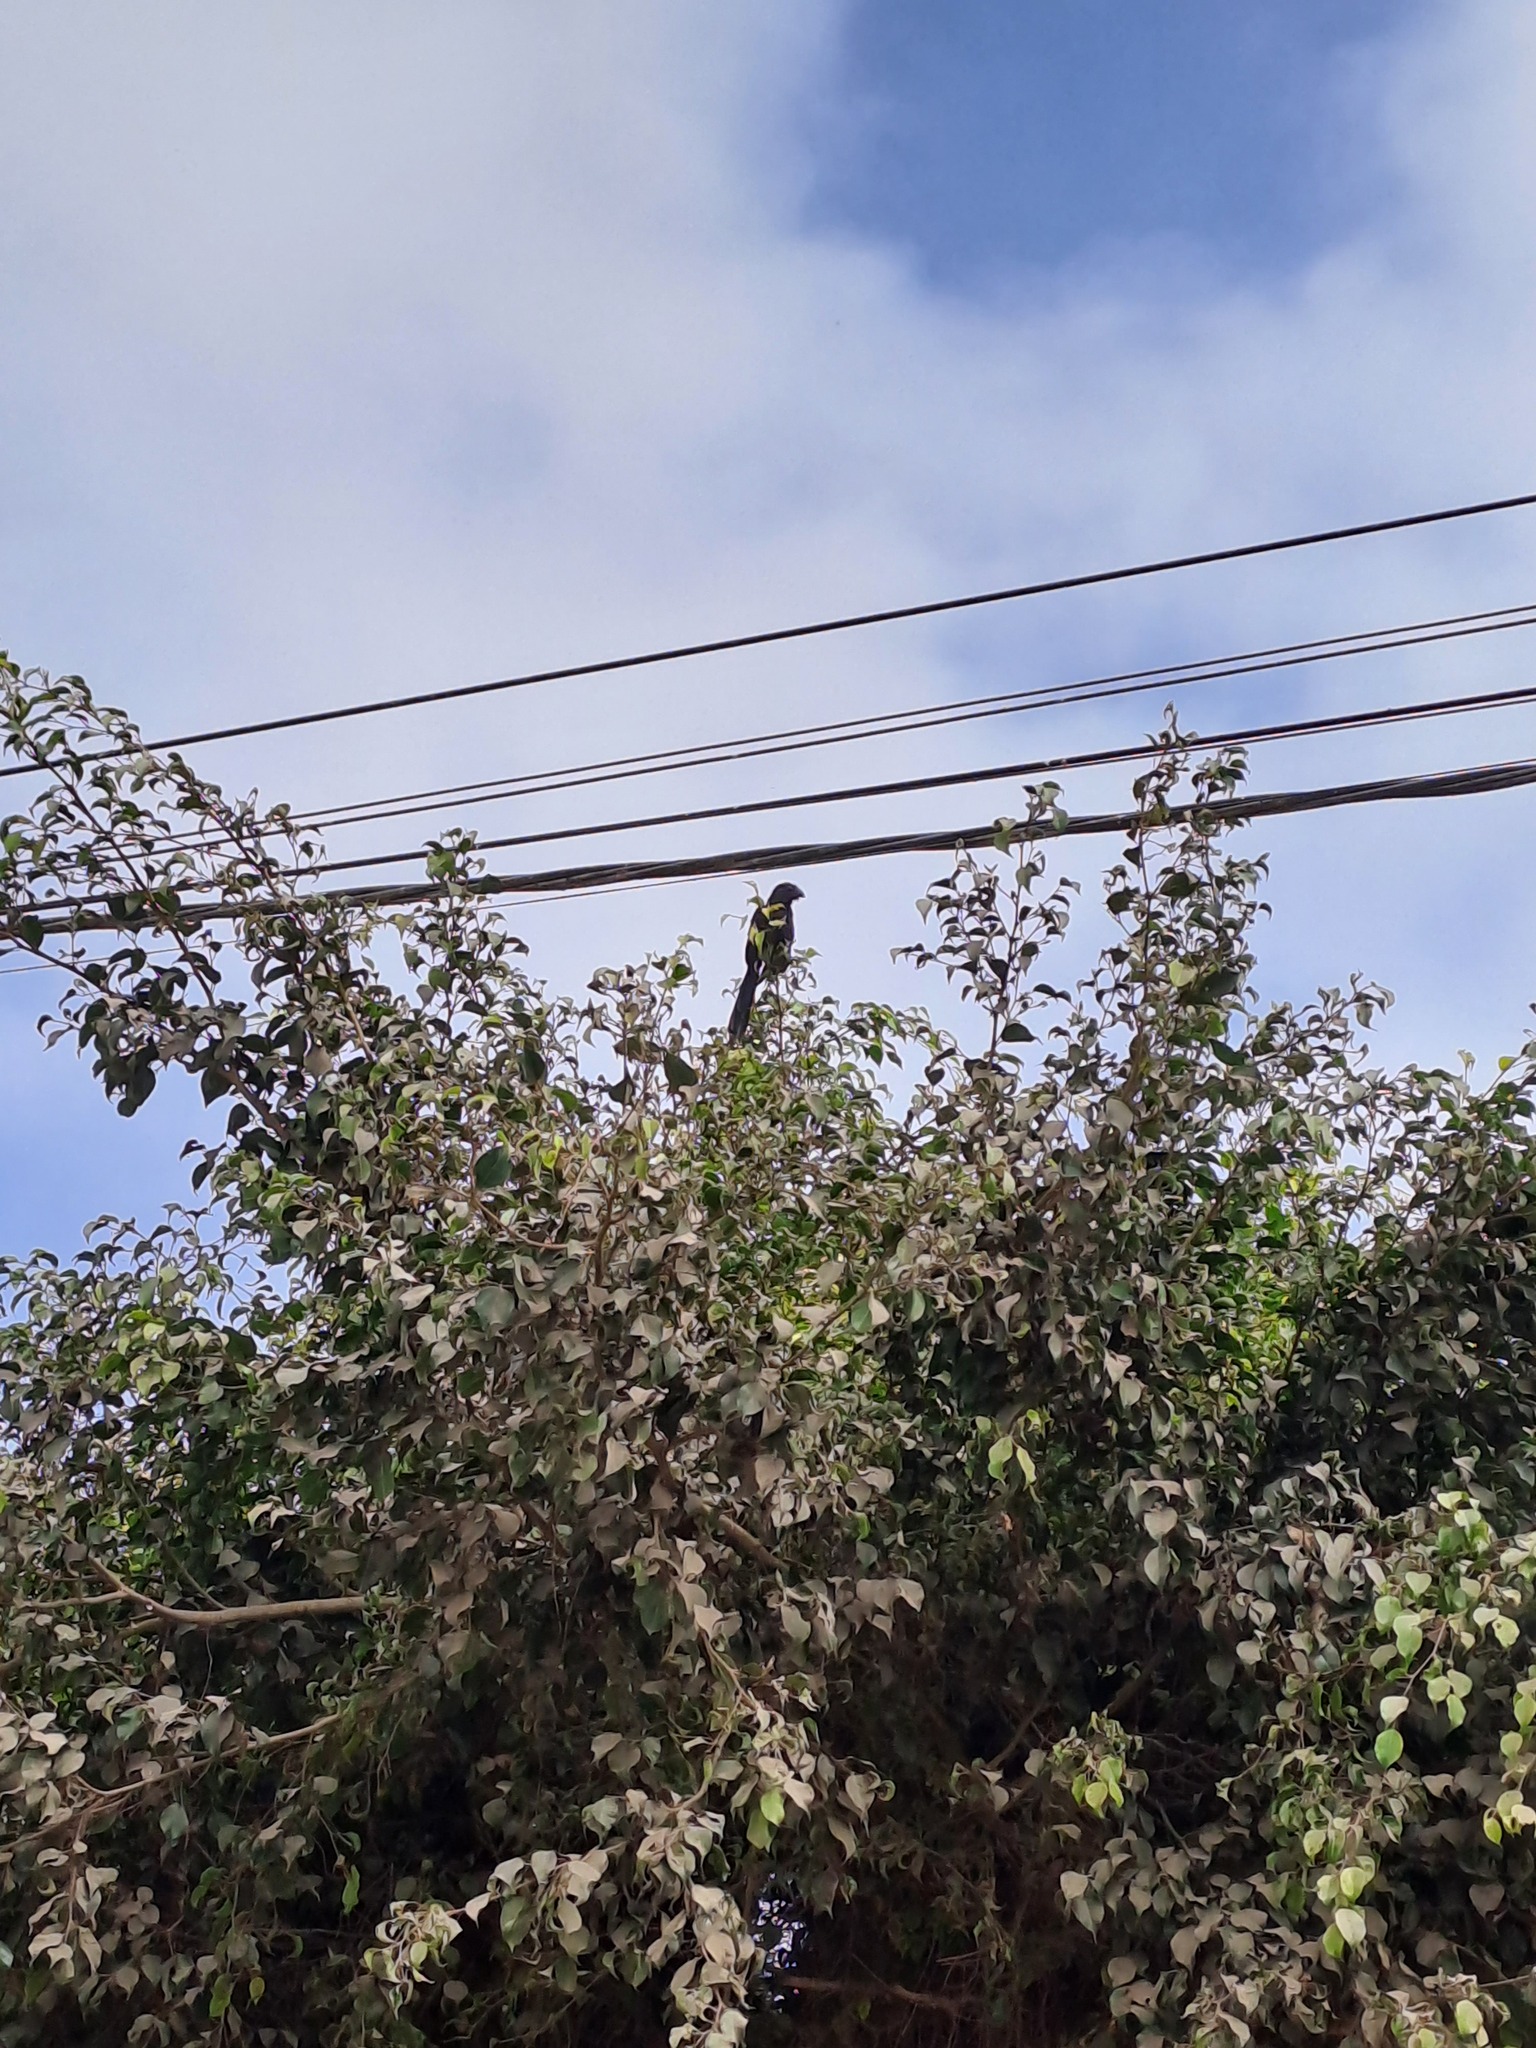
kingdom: Animalia
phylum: Chordata
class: Aves
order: Cuculiformes
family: Cuculidae
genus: Crotophaga
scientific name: Crotophaga sulcirostris
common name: Groove-billed ani
